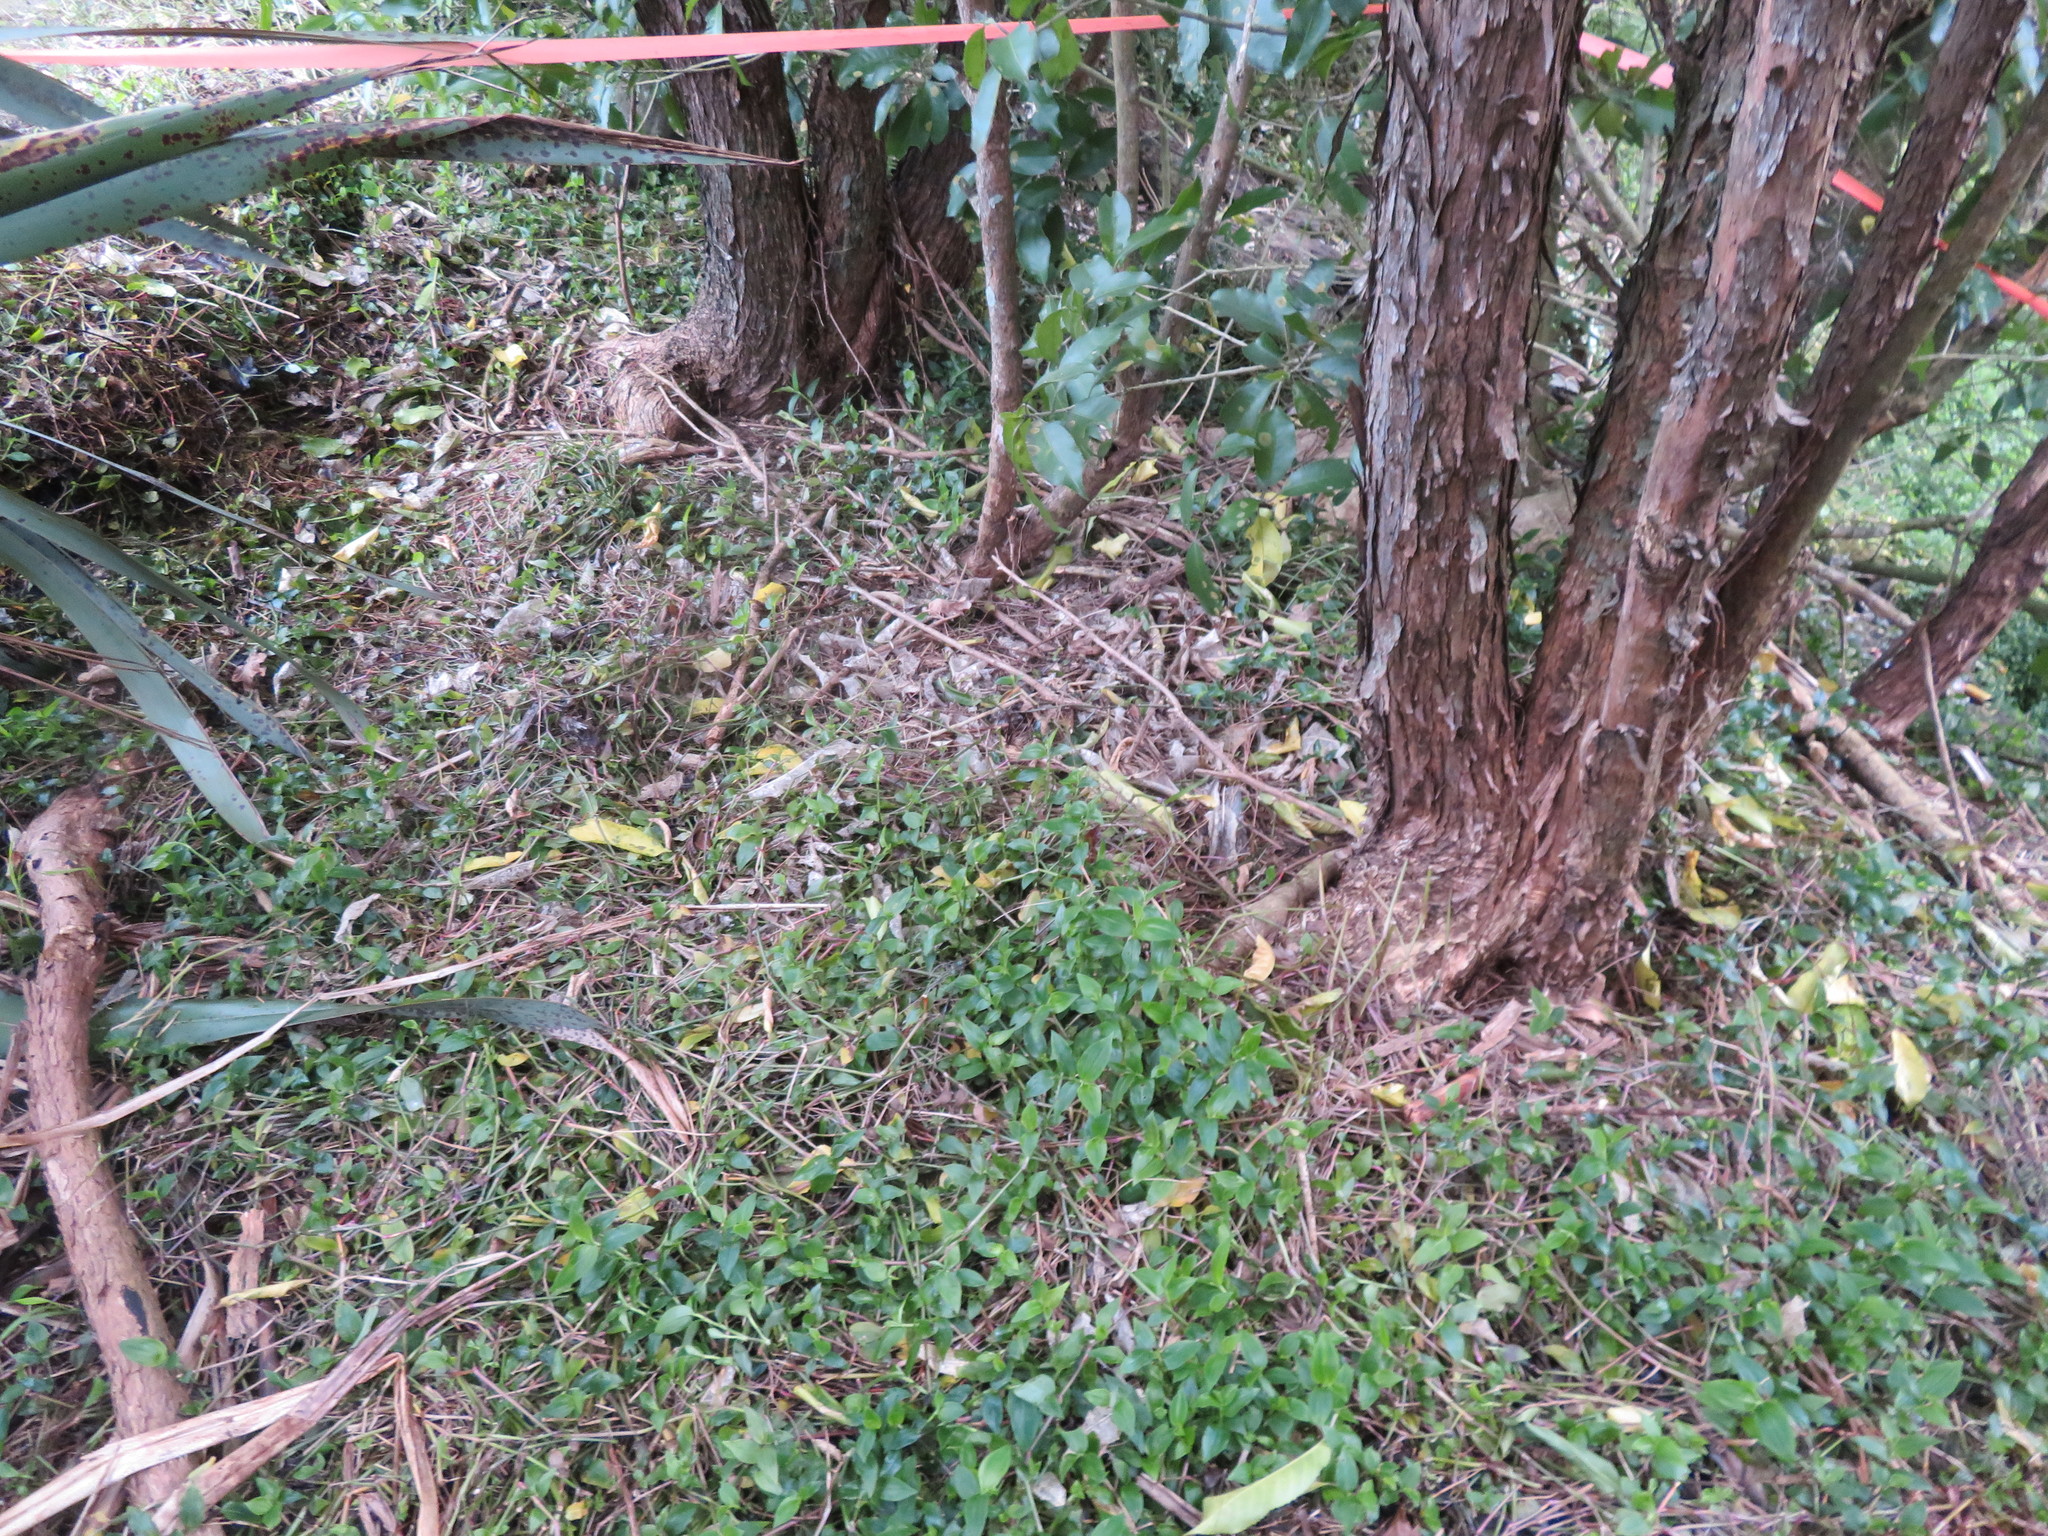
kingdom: Plantae
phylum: Tracheophyta
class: Liliopsida
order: Commelinales
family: Commelinaceae
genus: Tradescantia
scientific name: Tradescantia fluminensis
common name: Wandering-jew
